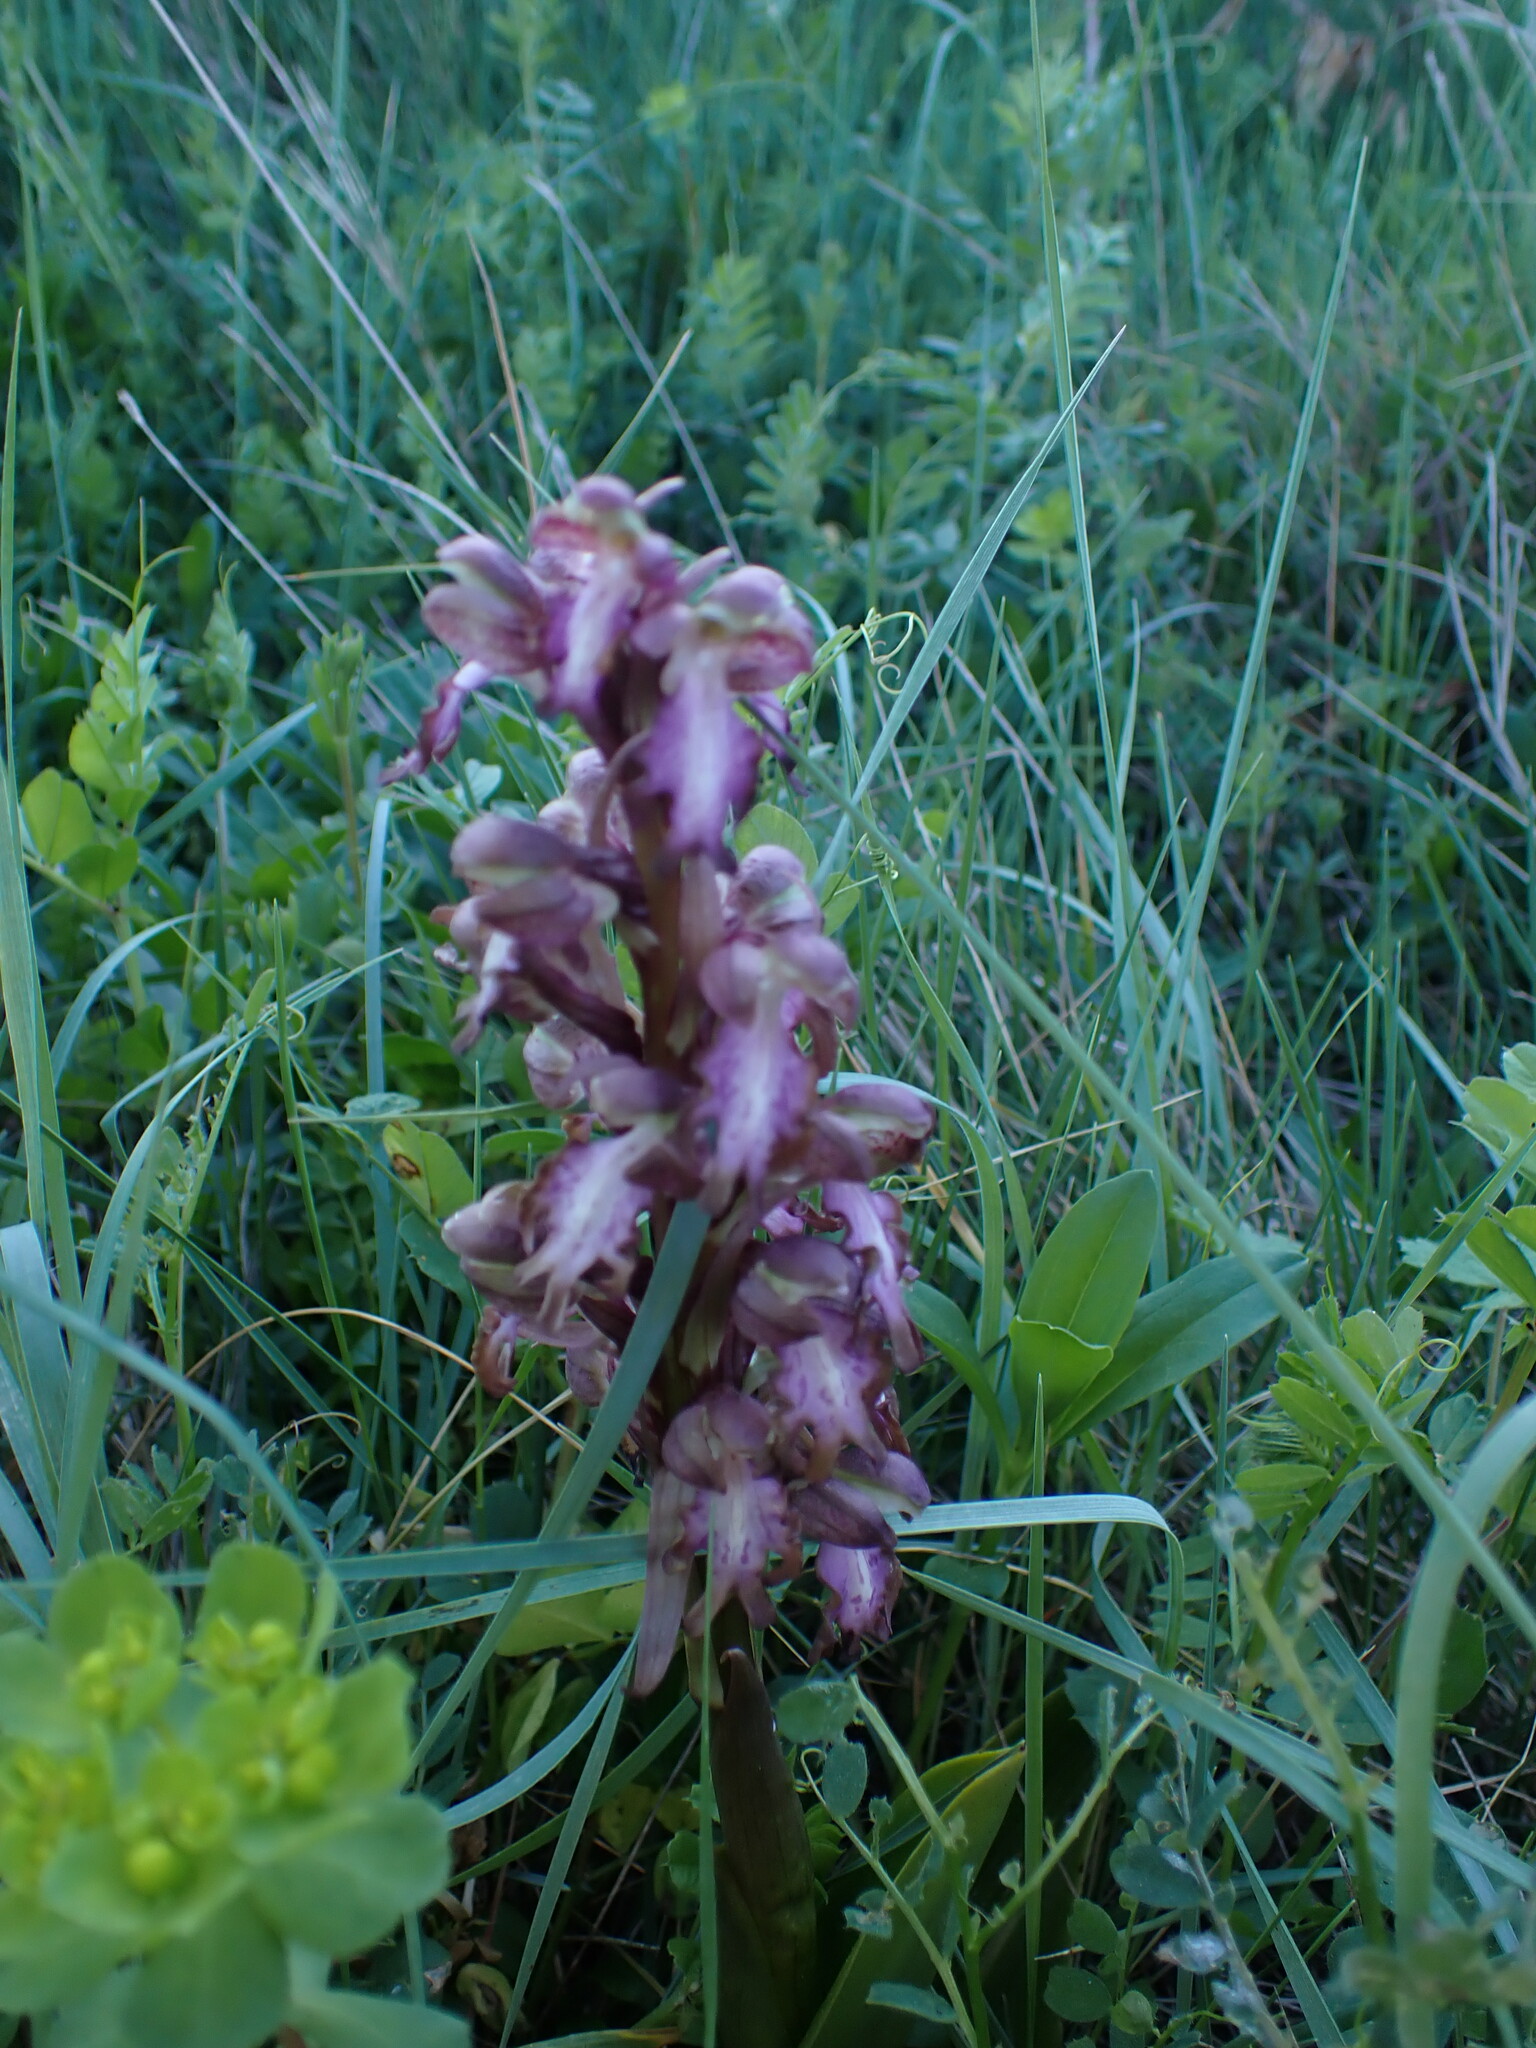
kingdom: Plantae
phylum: Tracheophyta
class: Liliopsida
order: Asparagales
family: Orchidaceae
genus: Himantoglossum
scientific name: Himantoglossum robertianum
